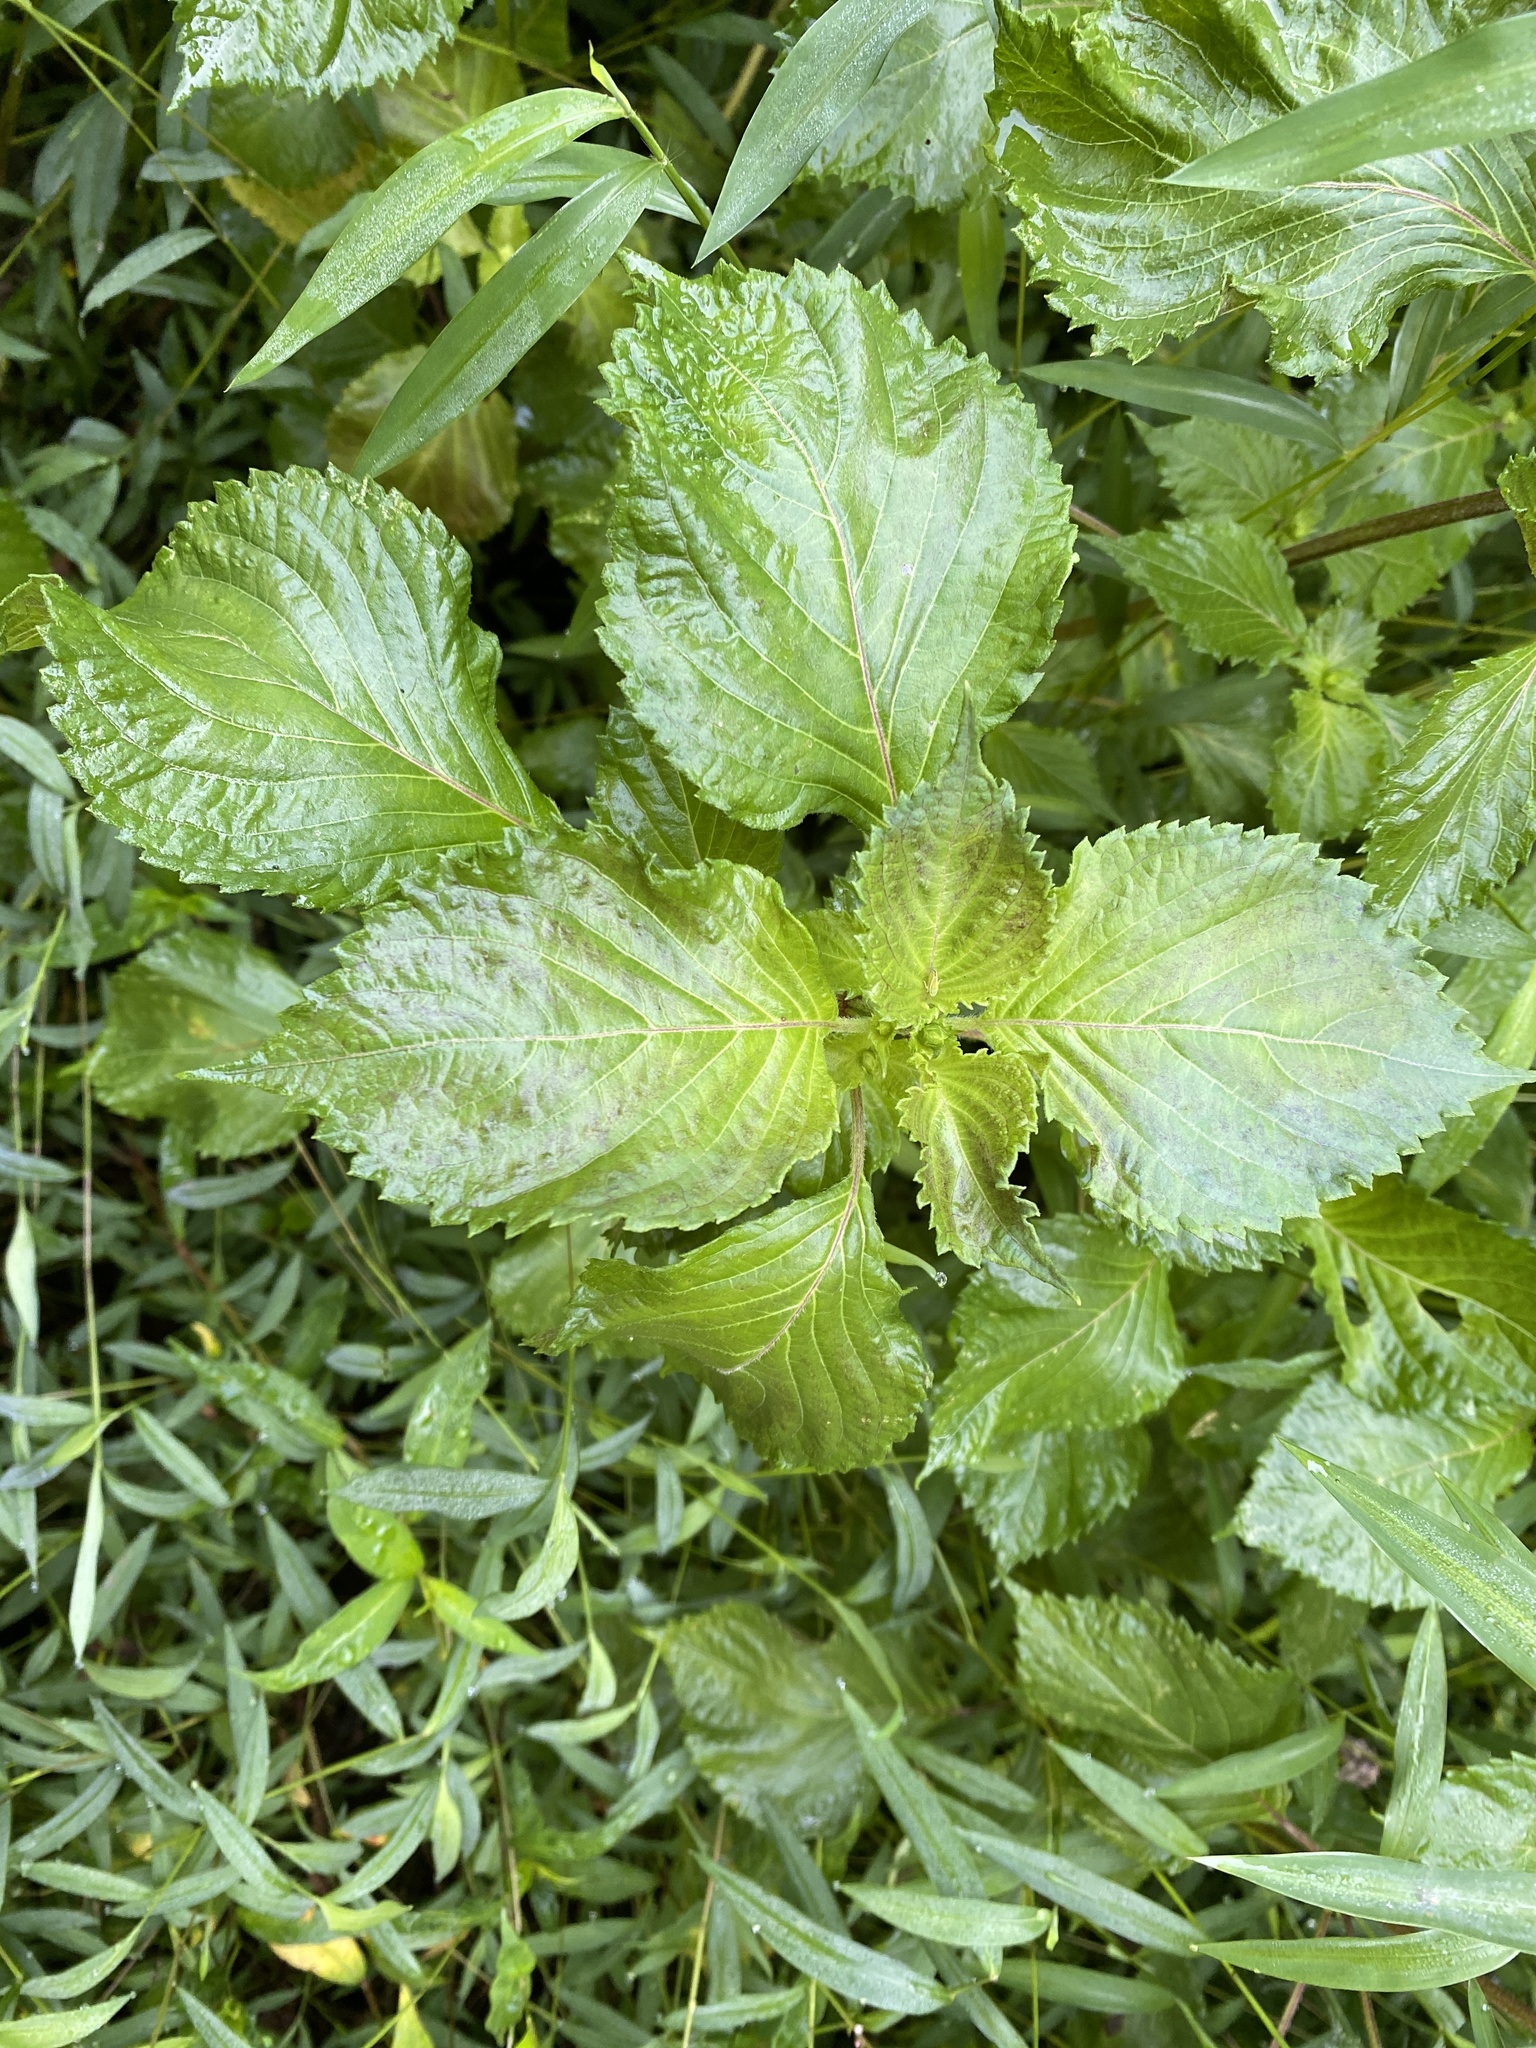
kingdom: Plantae
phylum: Tracheophyta
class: Magnoliopsida
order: Lamiales
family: Lamiaceae
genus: Perilla
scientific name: Perilla frutescens
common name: Perilla
